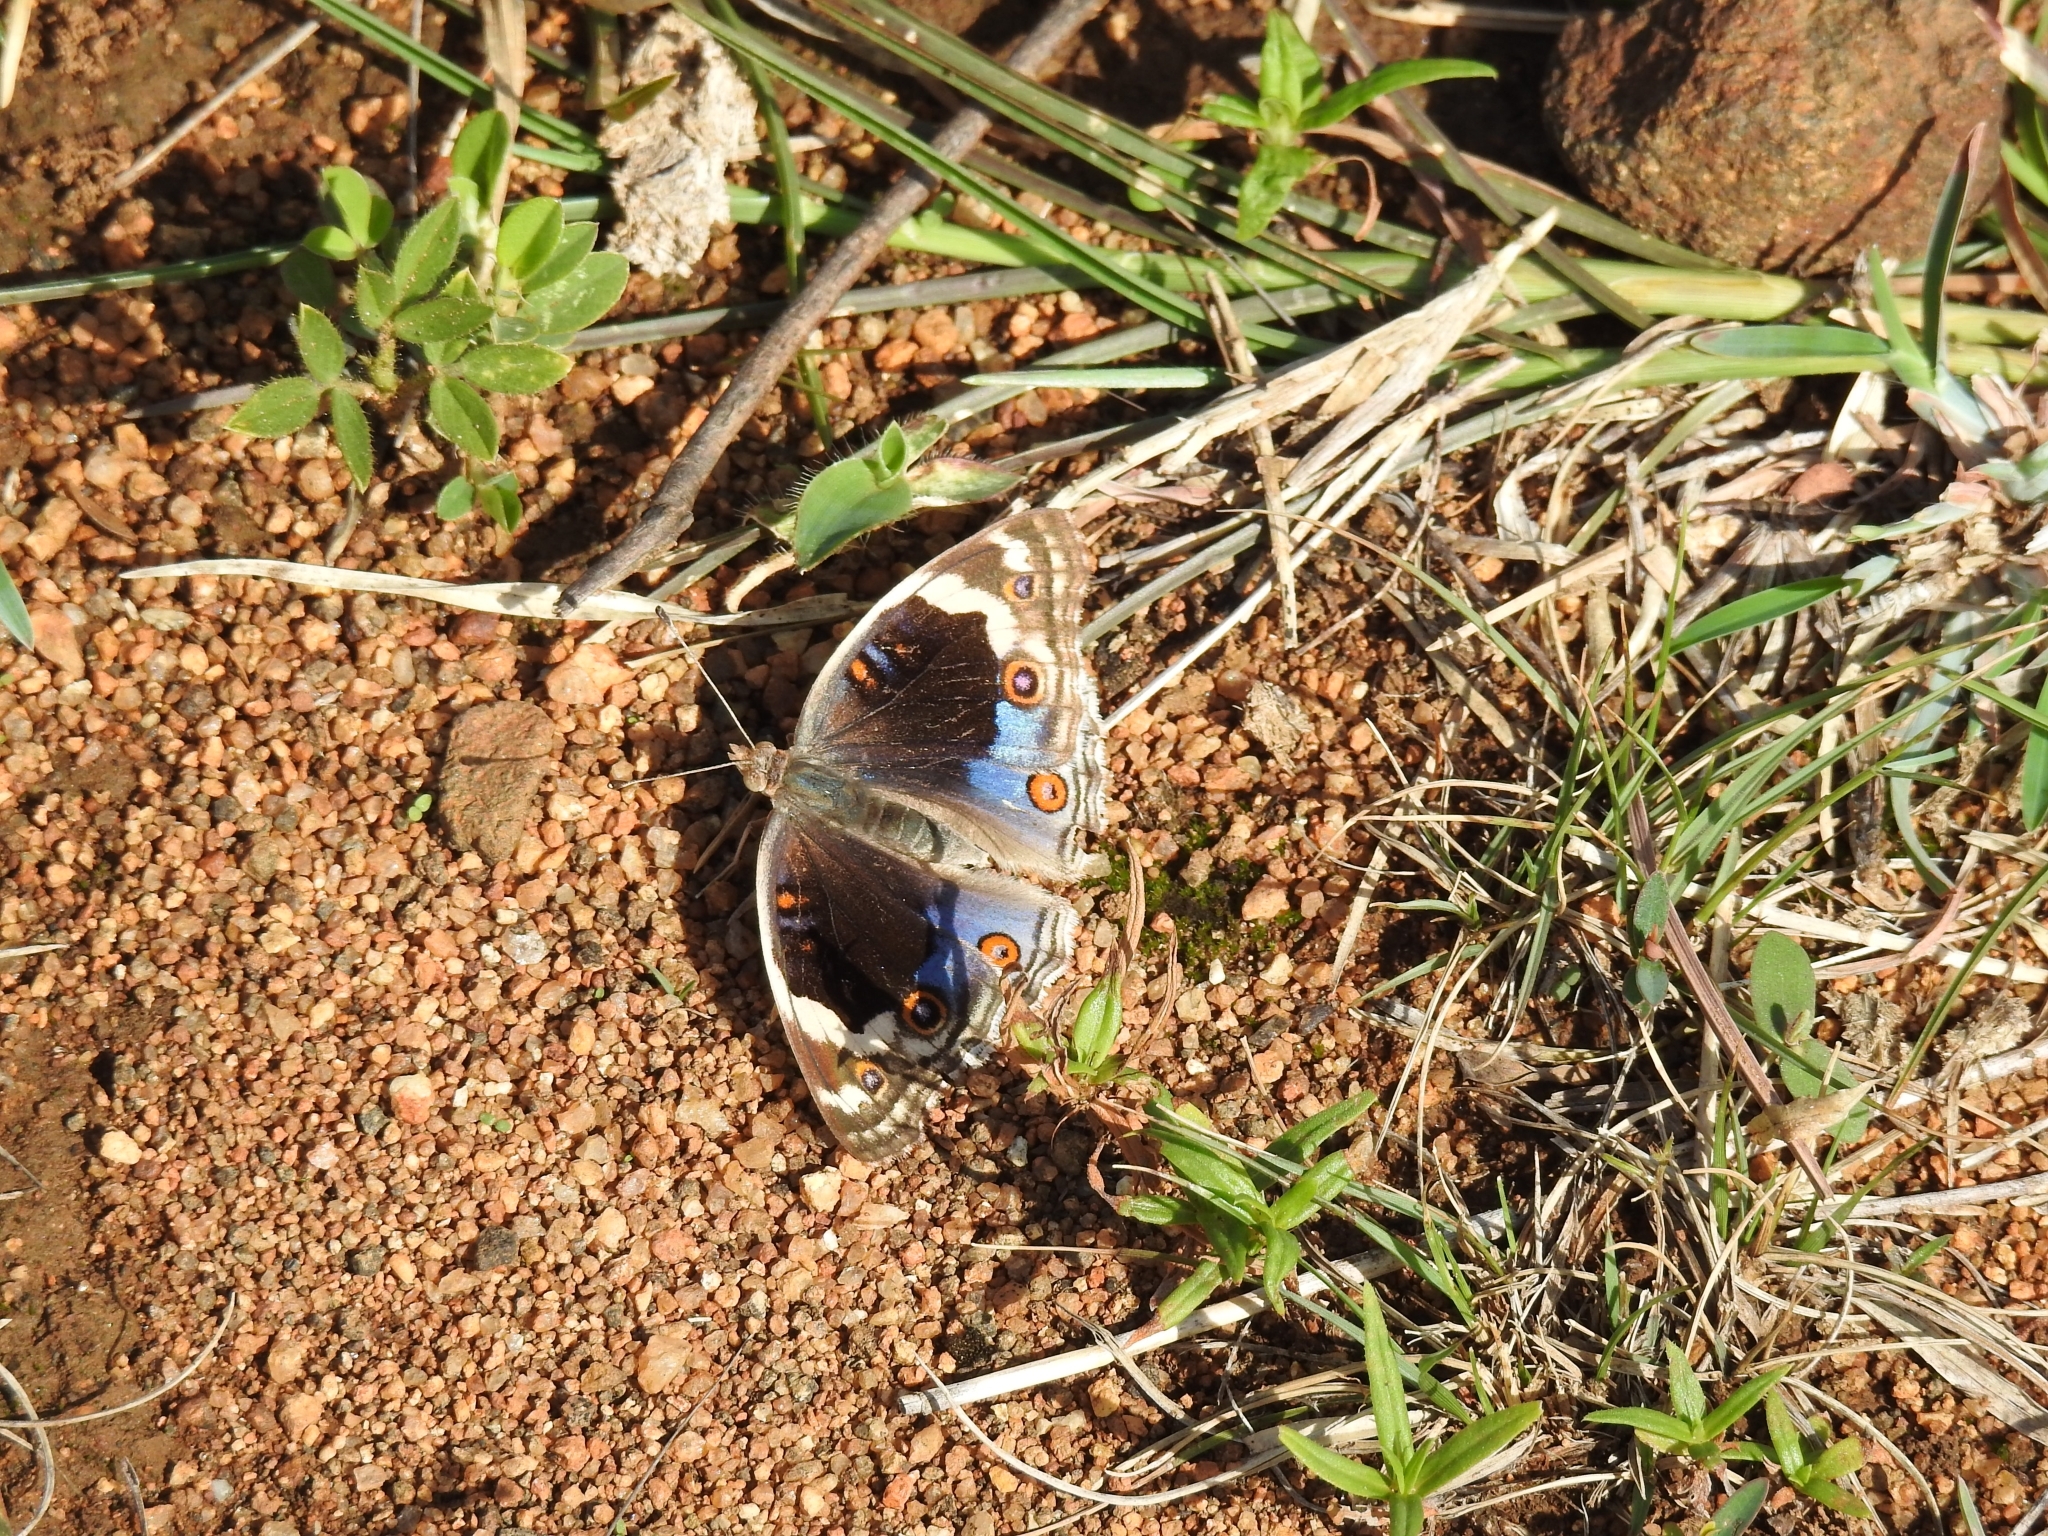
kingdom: Animalia
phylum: Arthropoda
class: Insecta
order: Lepidoptera
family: Nymphalidae
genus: Junonia
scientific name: Junonia orithya
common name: Blue pansy
